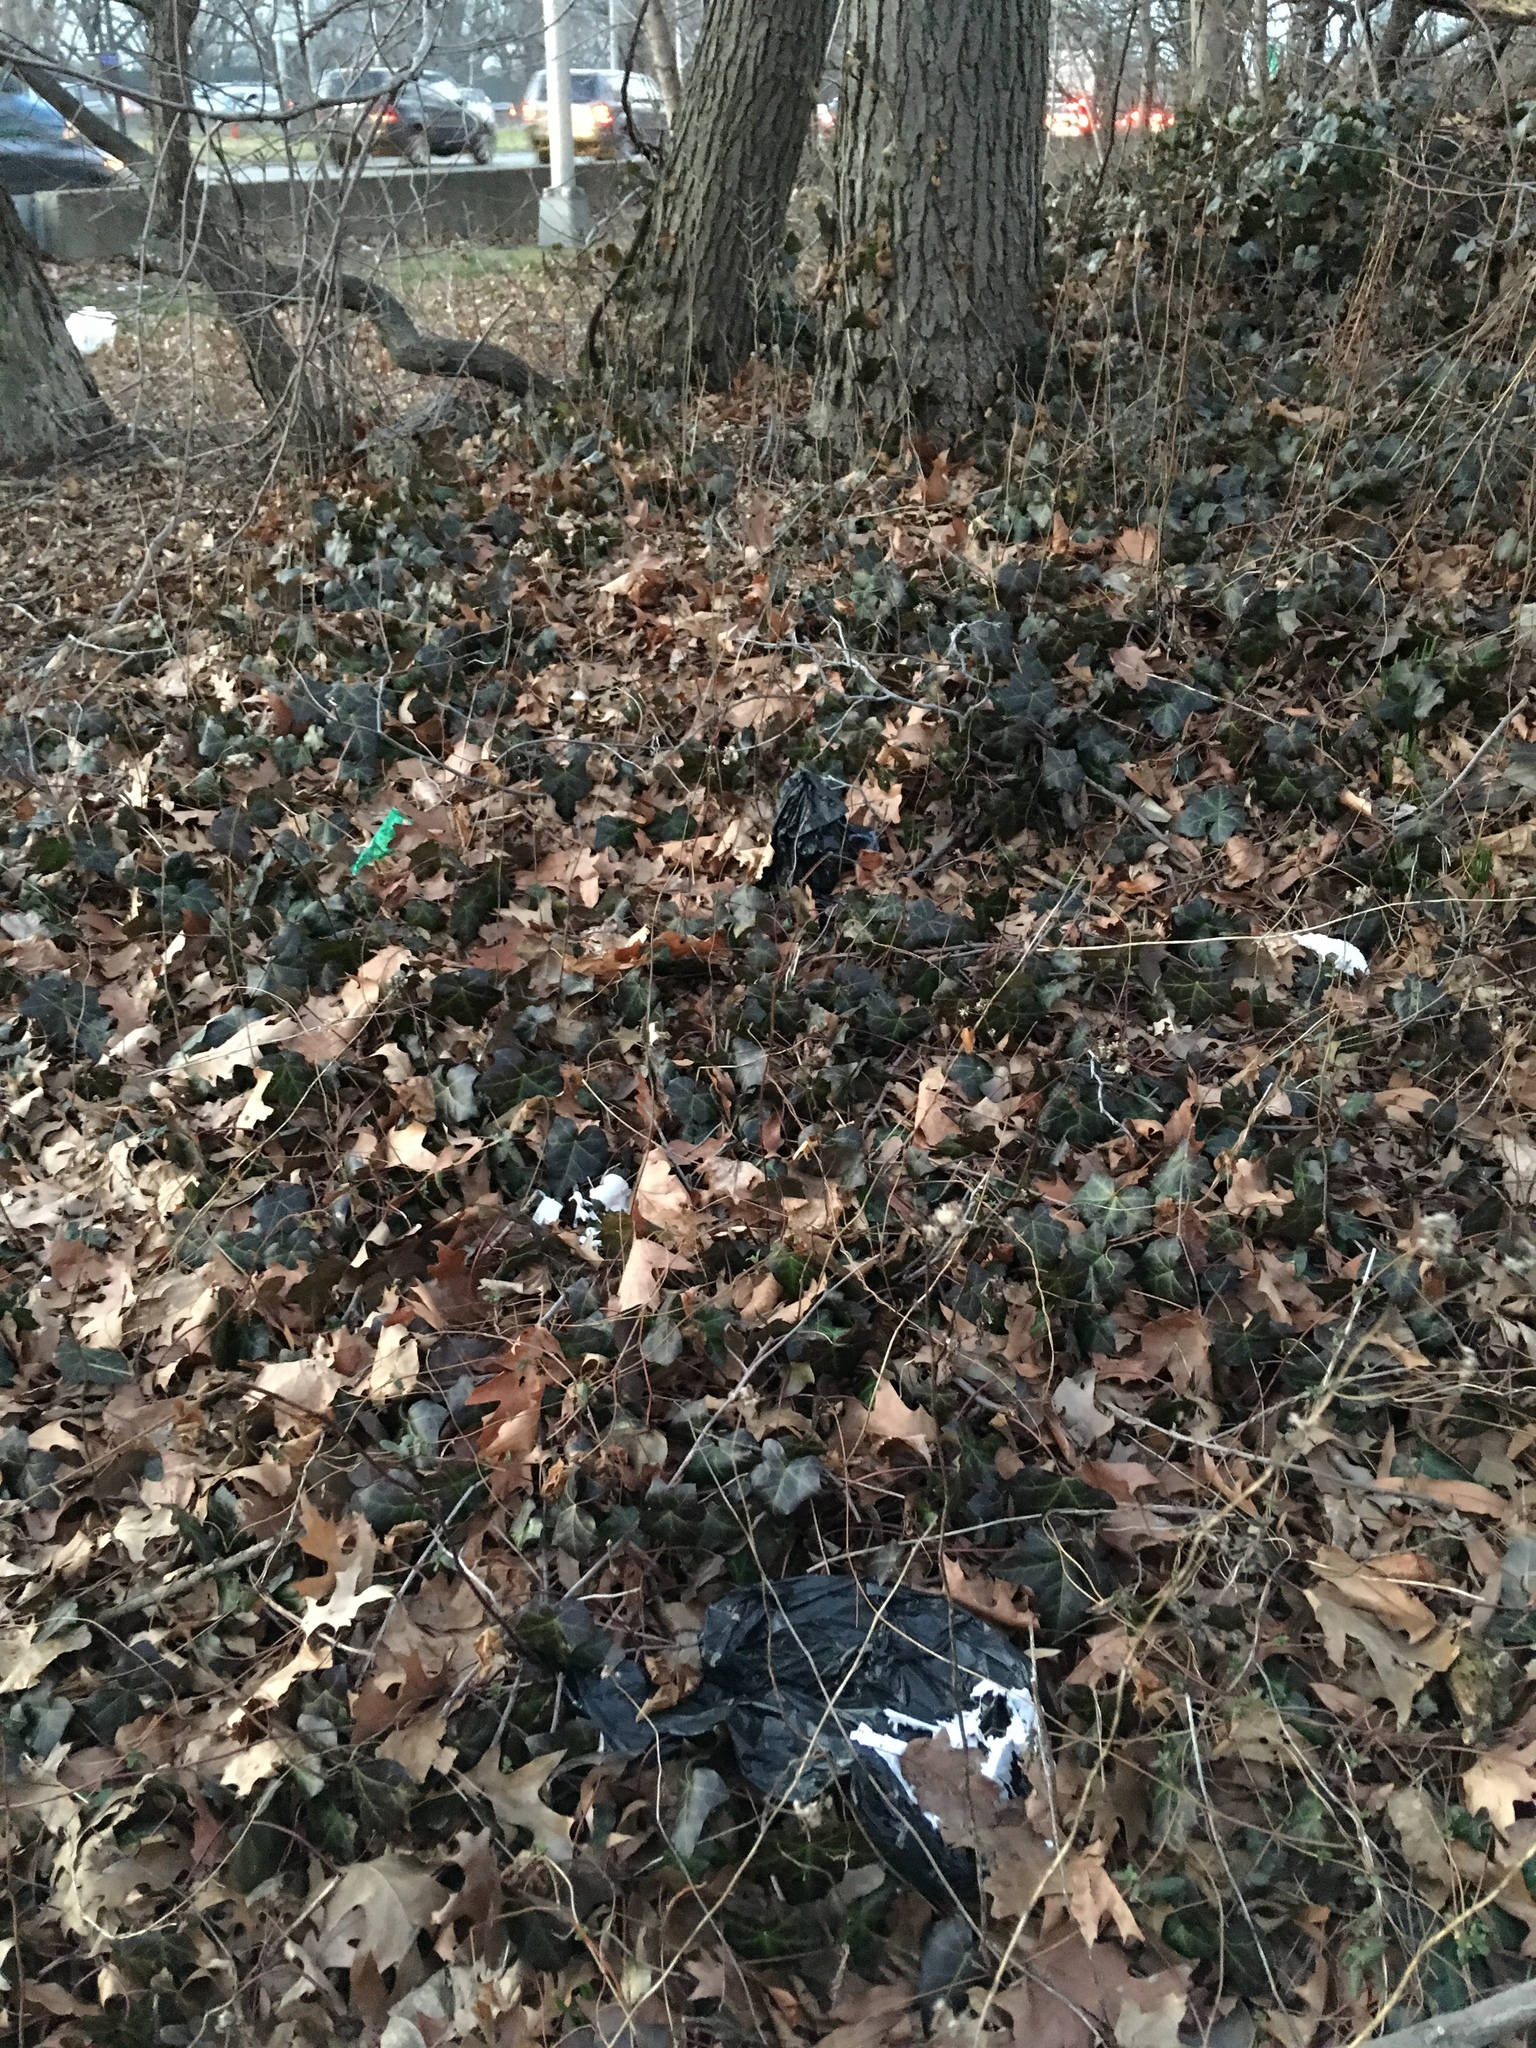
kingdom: Plantae
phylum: Tracheophyta
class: Magnoliopsida
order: Apiales
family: Araliaceae
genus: Hedera
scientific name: Hedera helix
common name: Ivy
